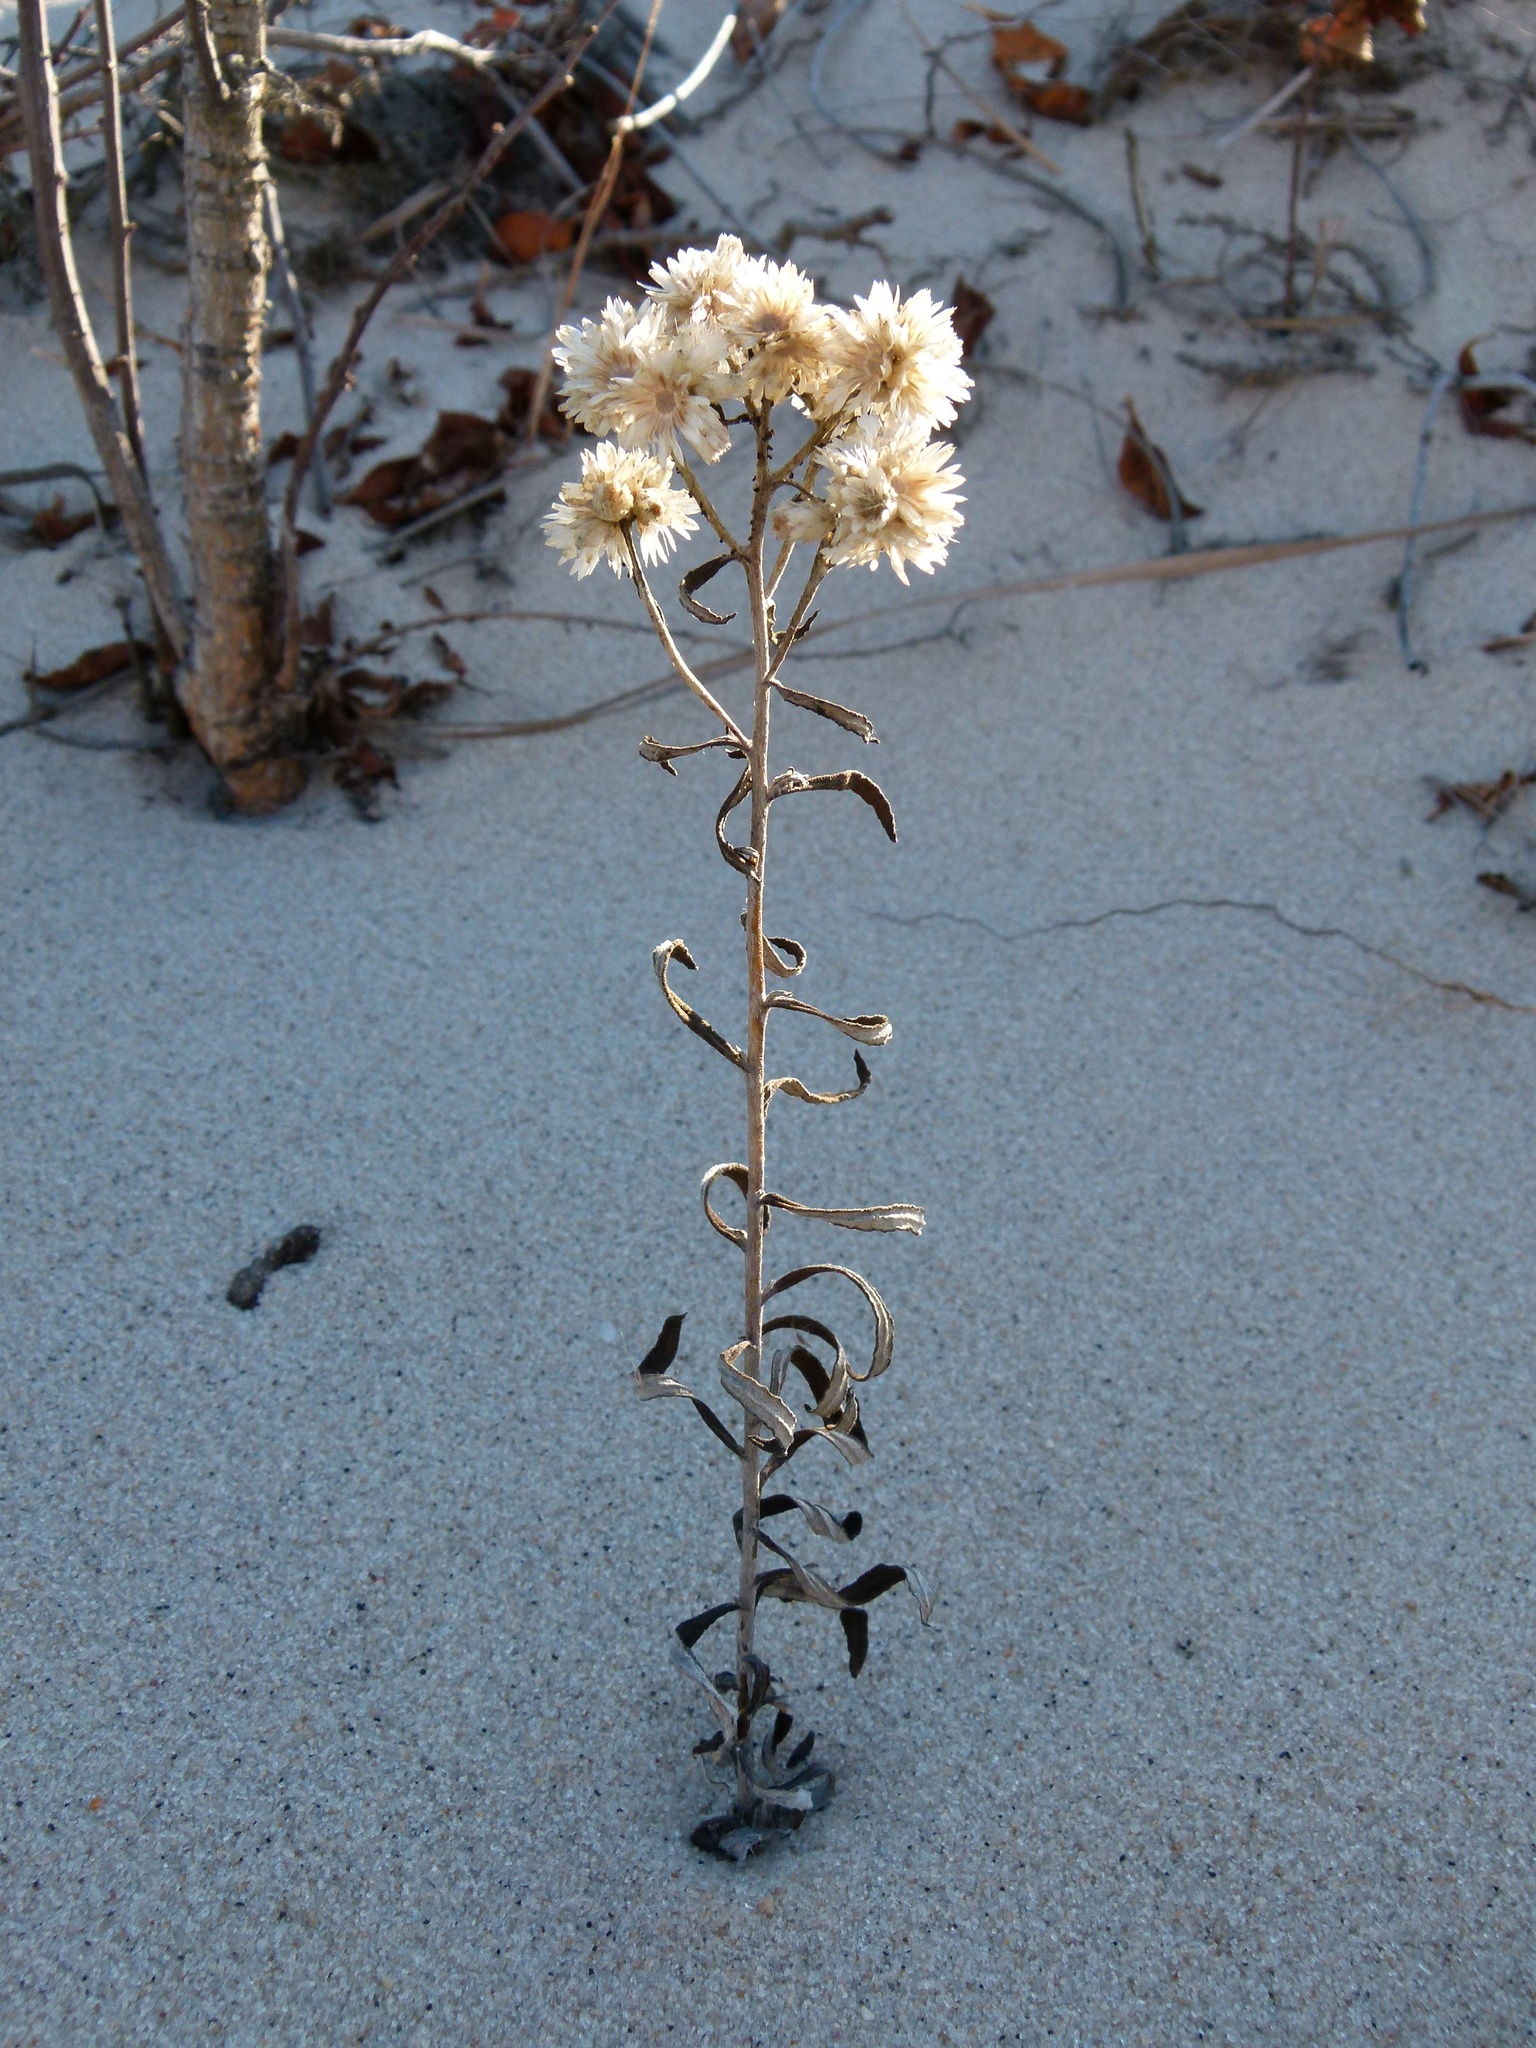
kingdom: Plantae
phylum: Tracheophyta
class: Magnoliopsida
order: Asterales
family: Asteraceae
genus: Pseudognaphalium
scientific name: Pseudognaphalium obtusifolium
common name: Eastern rabbit-tobacco
